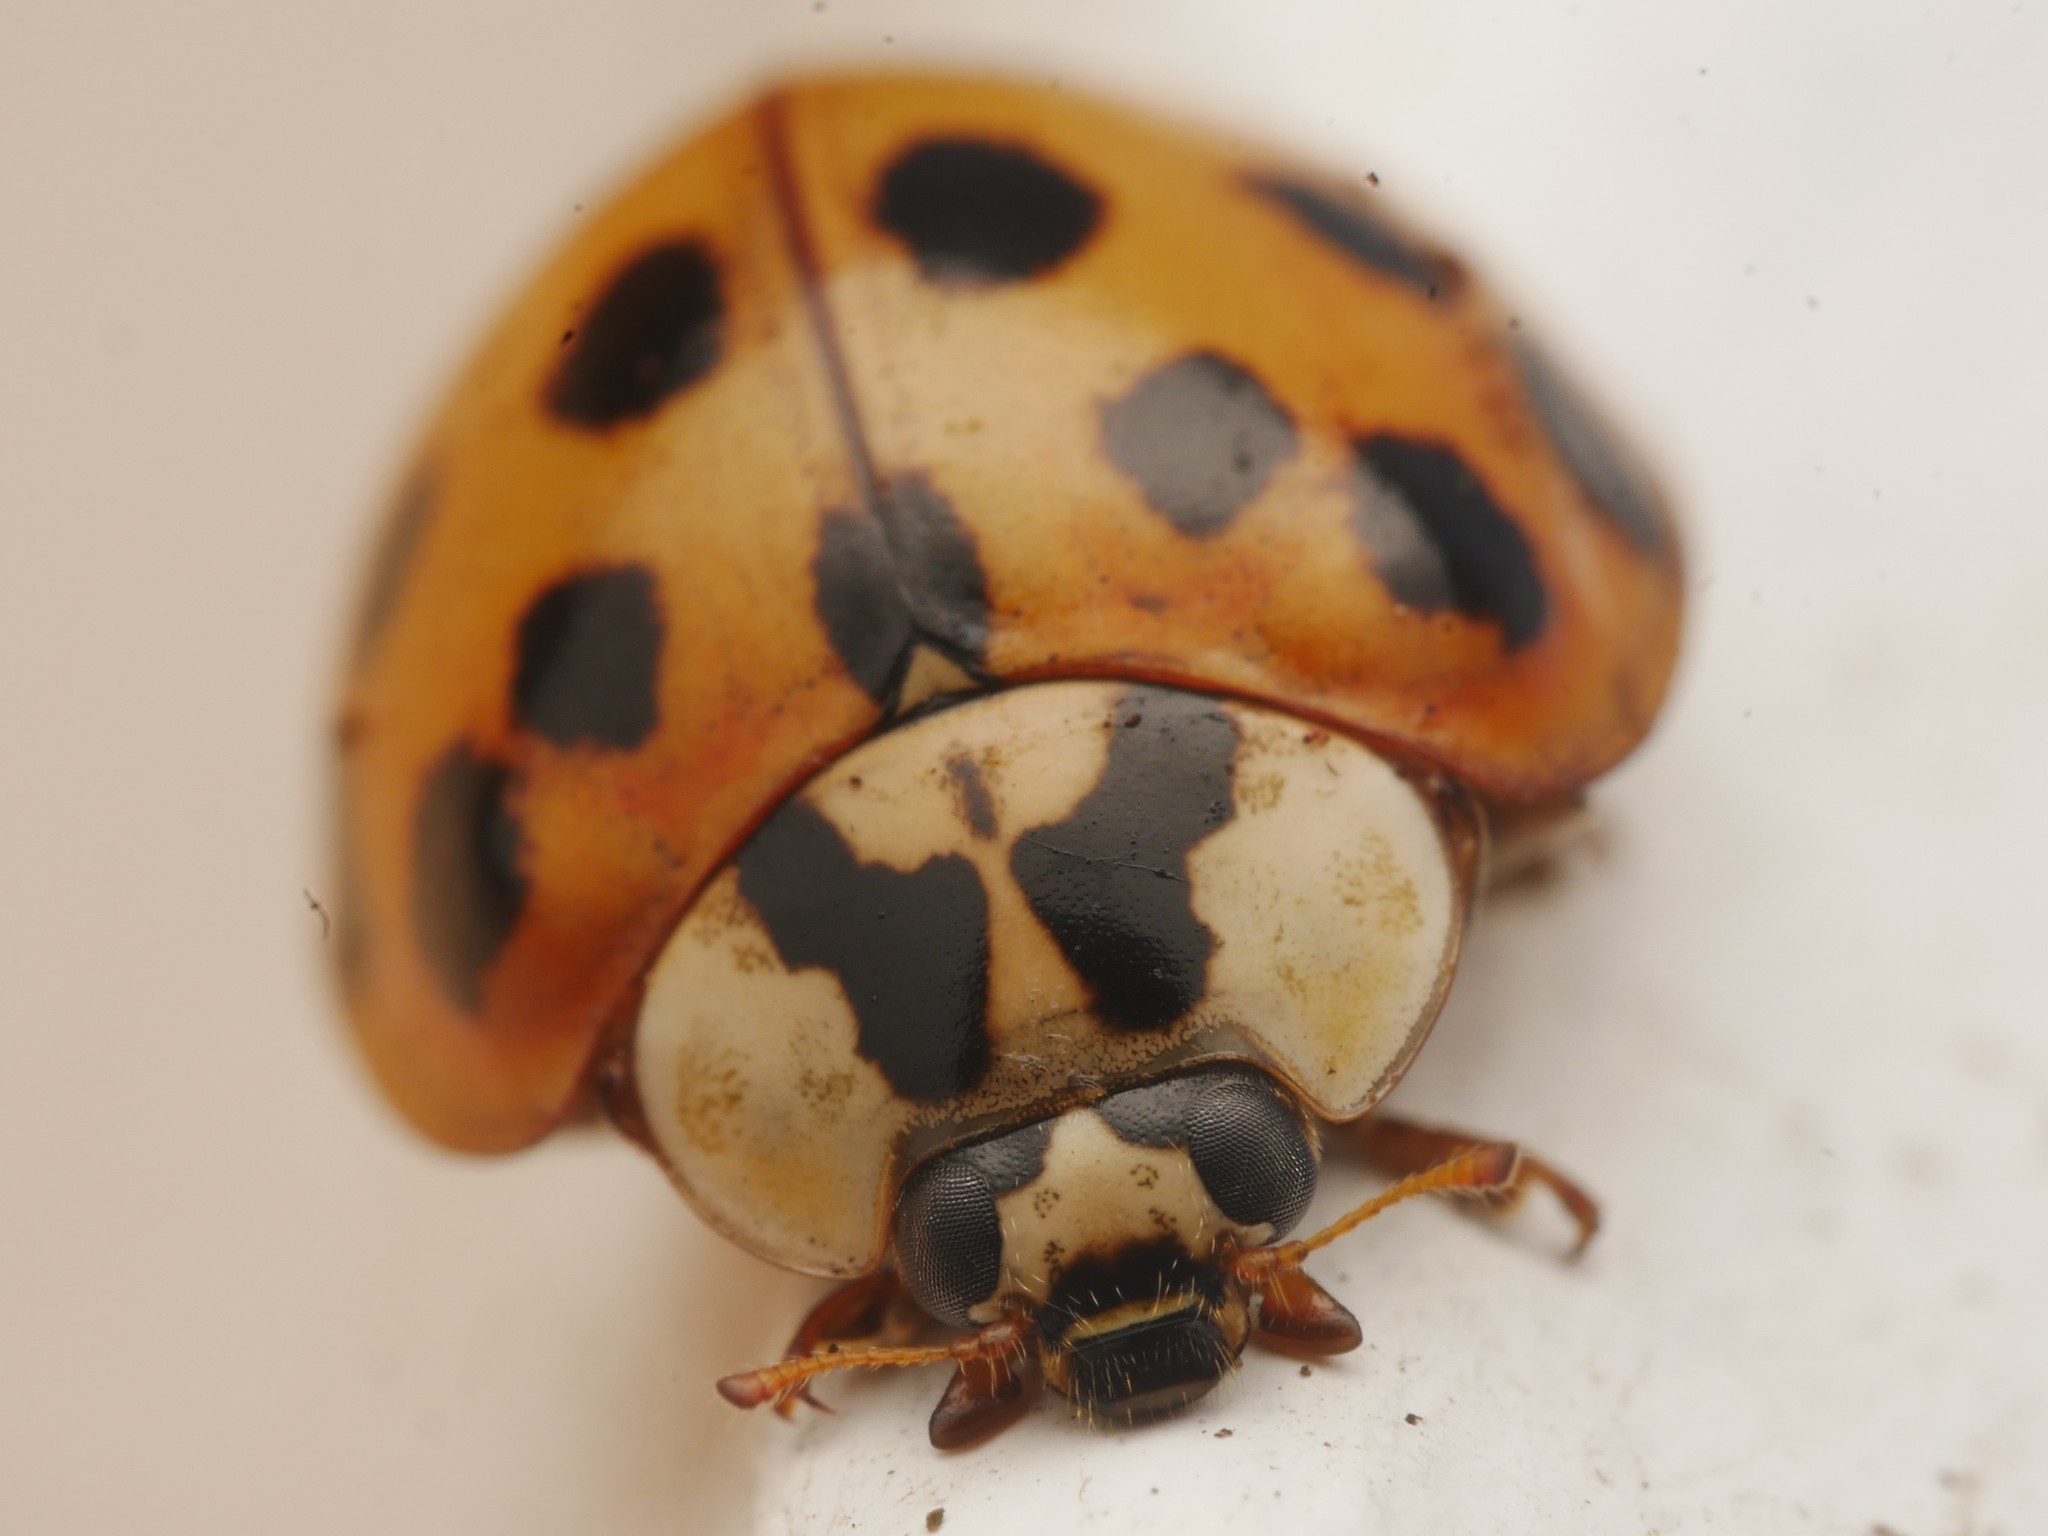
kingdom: Animalia
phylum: Arthropoda
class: Insecta
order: Coleoptera
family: Coccinellidae
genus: Harmonia
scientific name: Harmonia axyridis
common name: Harlequin ladybird
